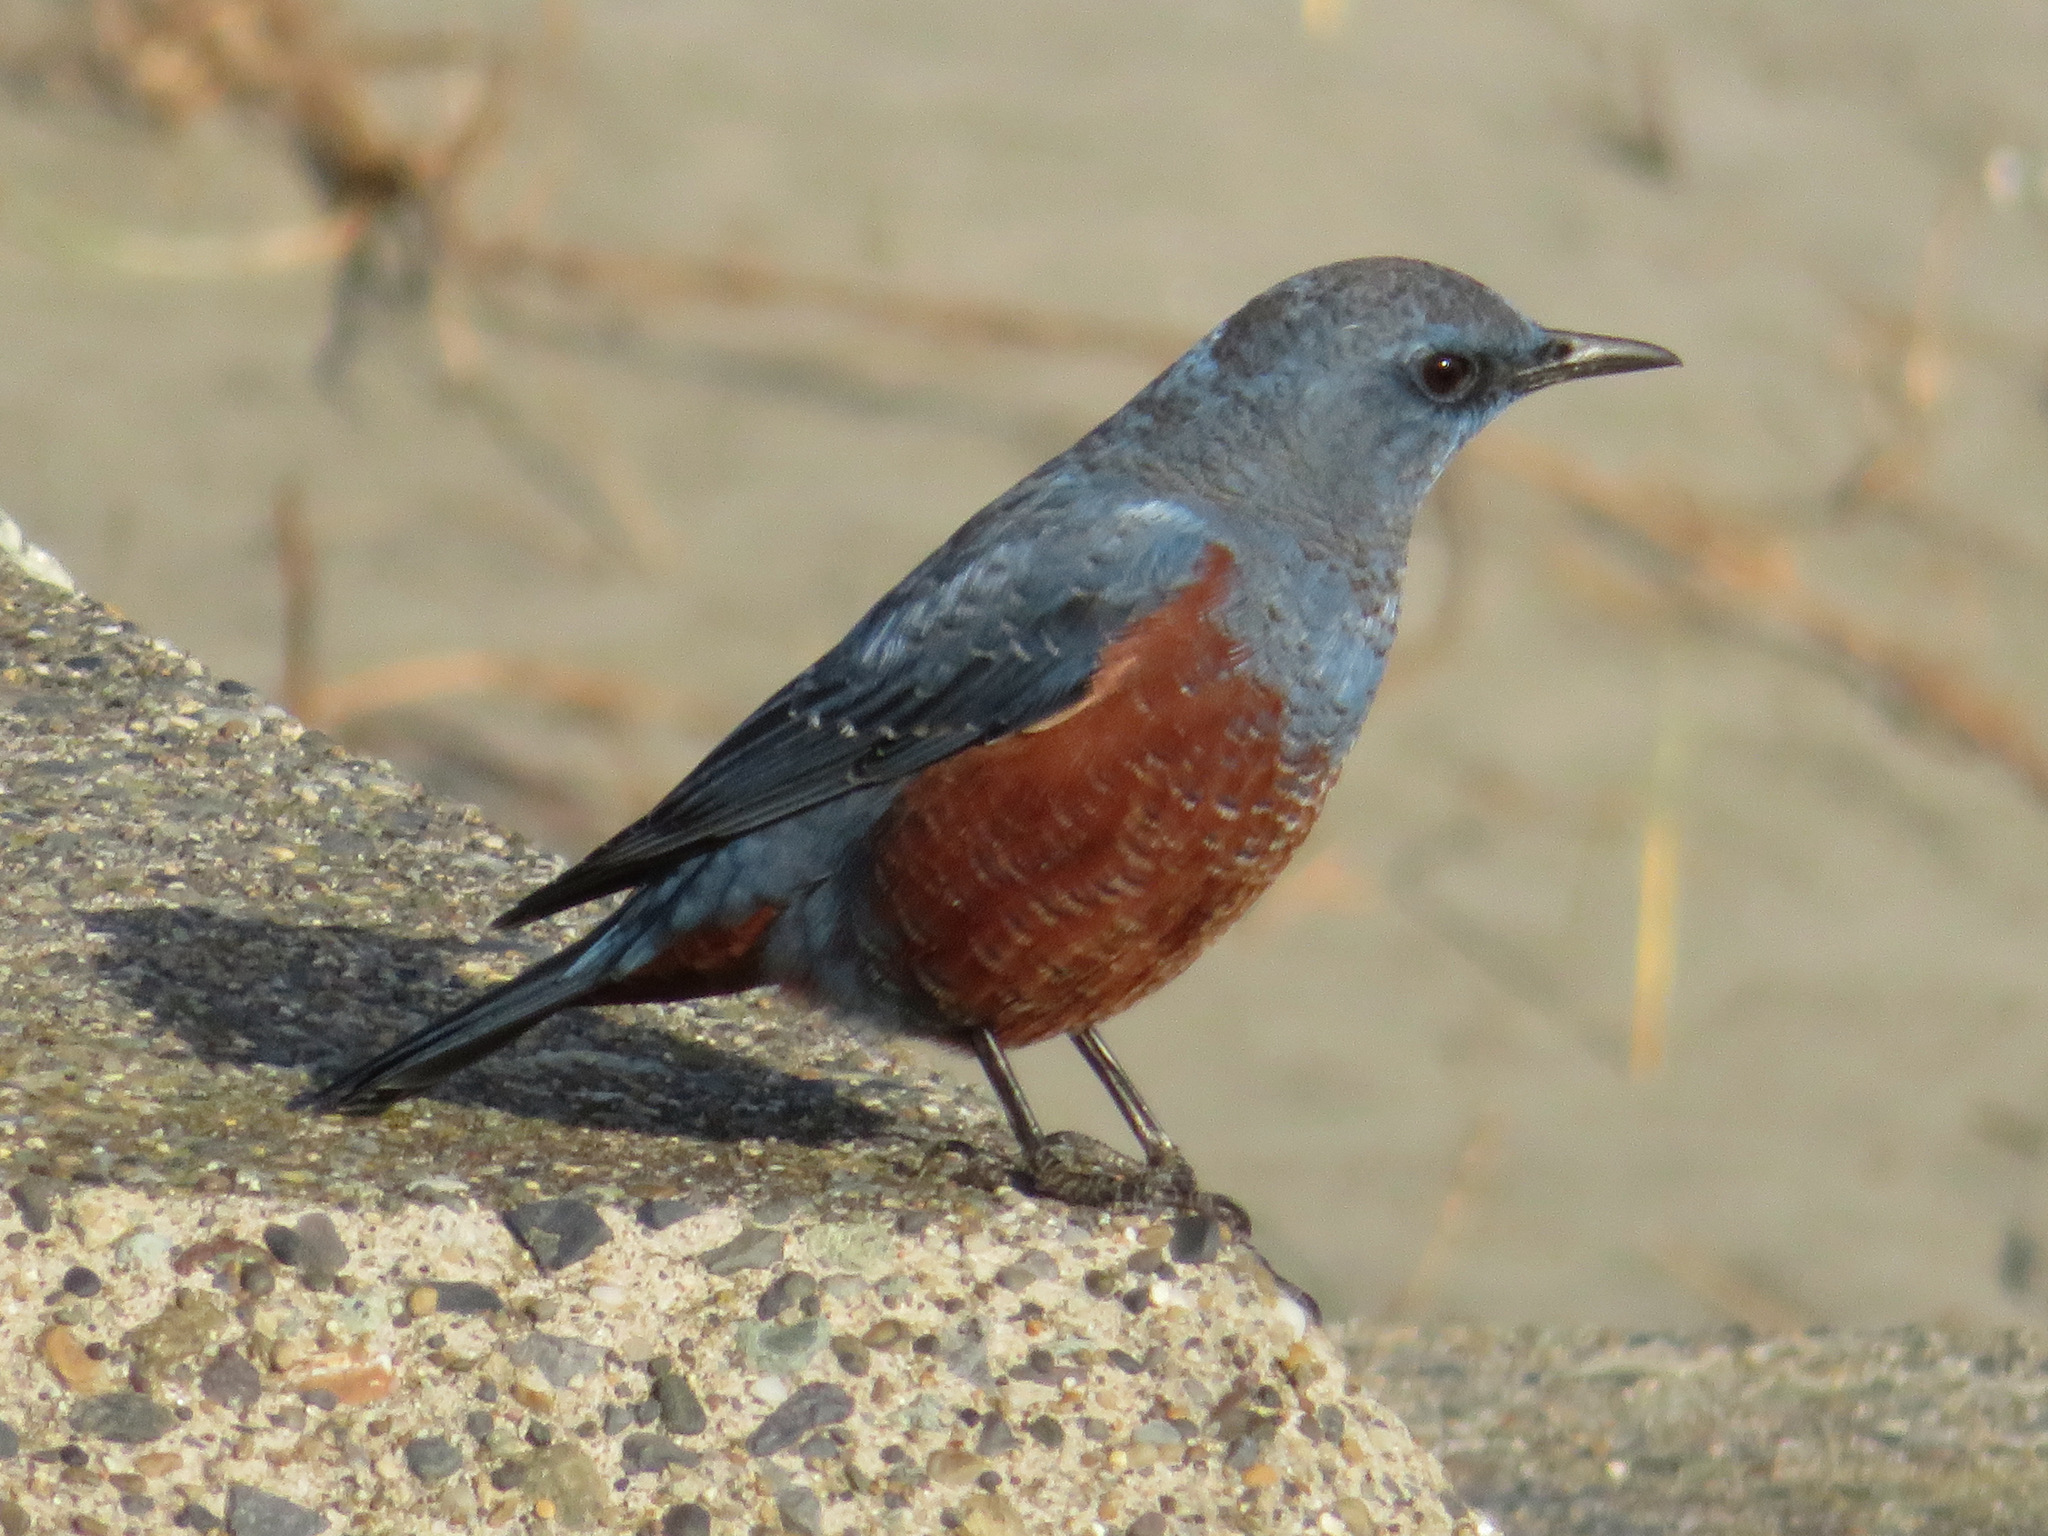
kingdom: Animalia
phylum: Chordata
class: Aves
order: Passeriformes
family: Muscicapidae
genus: Monticola
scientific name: Monticola solitarius
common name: Blue rock thrush
